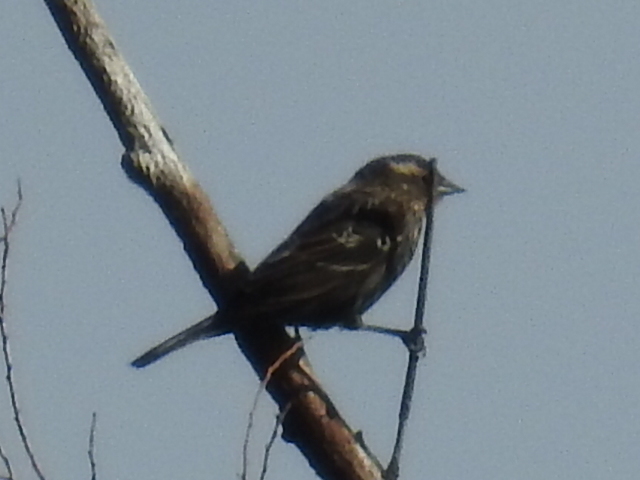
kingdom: Animalia
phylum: Chordata
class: Aves
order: Passeriformes
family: Icteridae
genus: Agelaius
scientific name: Agelaius phoeniceus
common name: Red-winged blackbird
